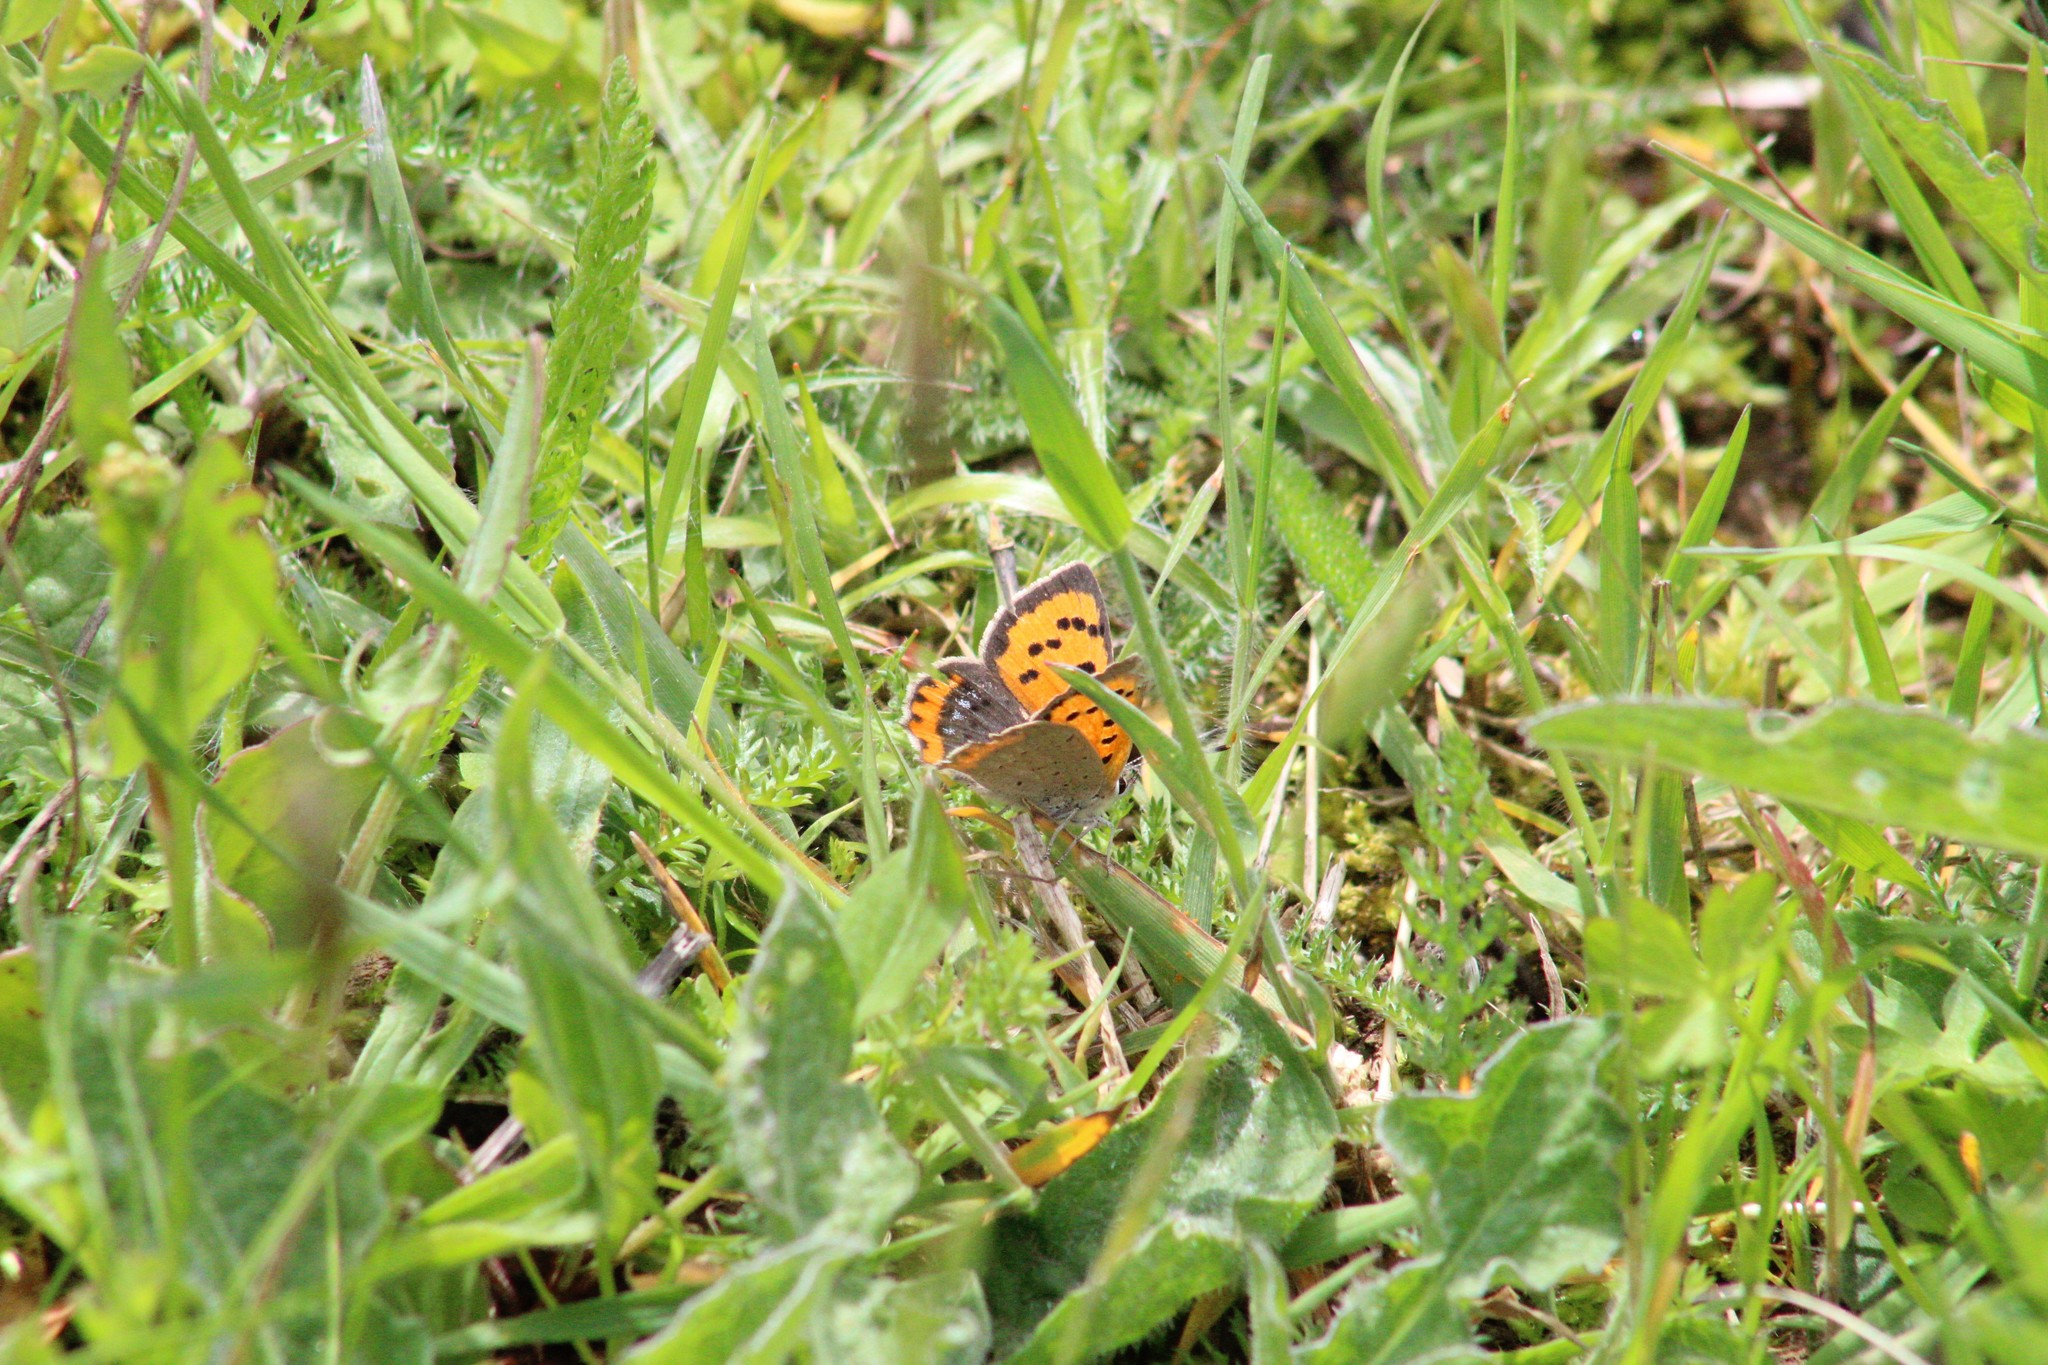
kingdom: Animalia
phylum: Arthropoda
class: Insecta
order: Lepidoptera
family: Lycaenidae
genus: Lycaena
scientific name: Lycaena phlaeas
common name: Small copper
